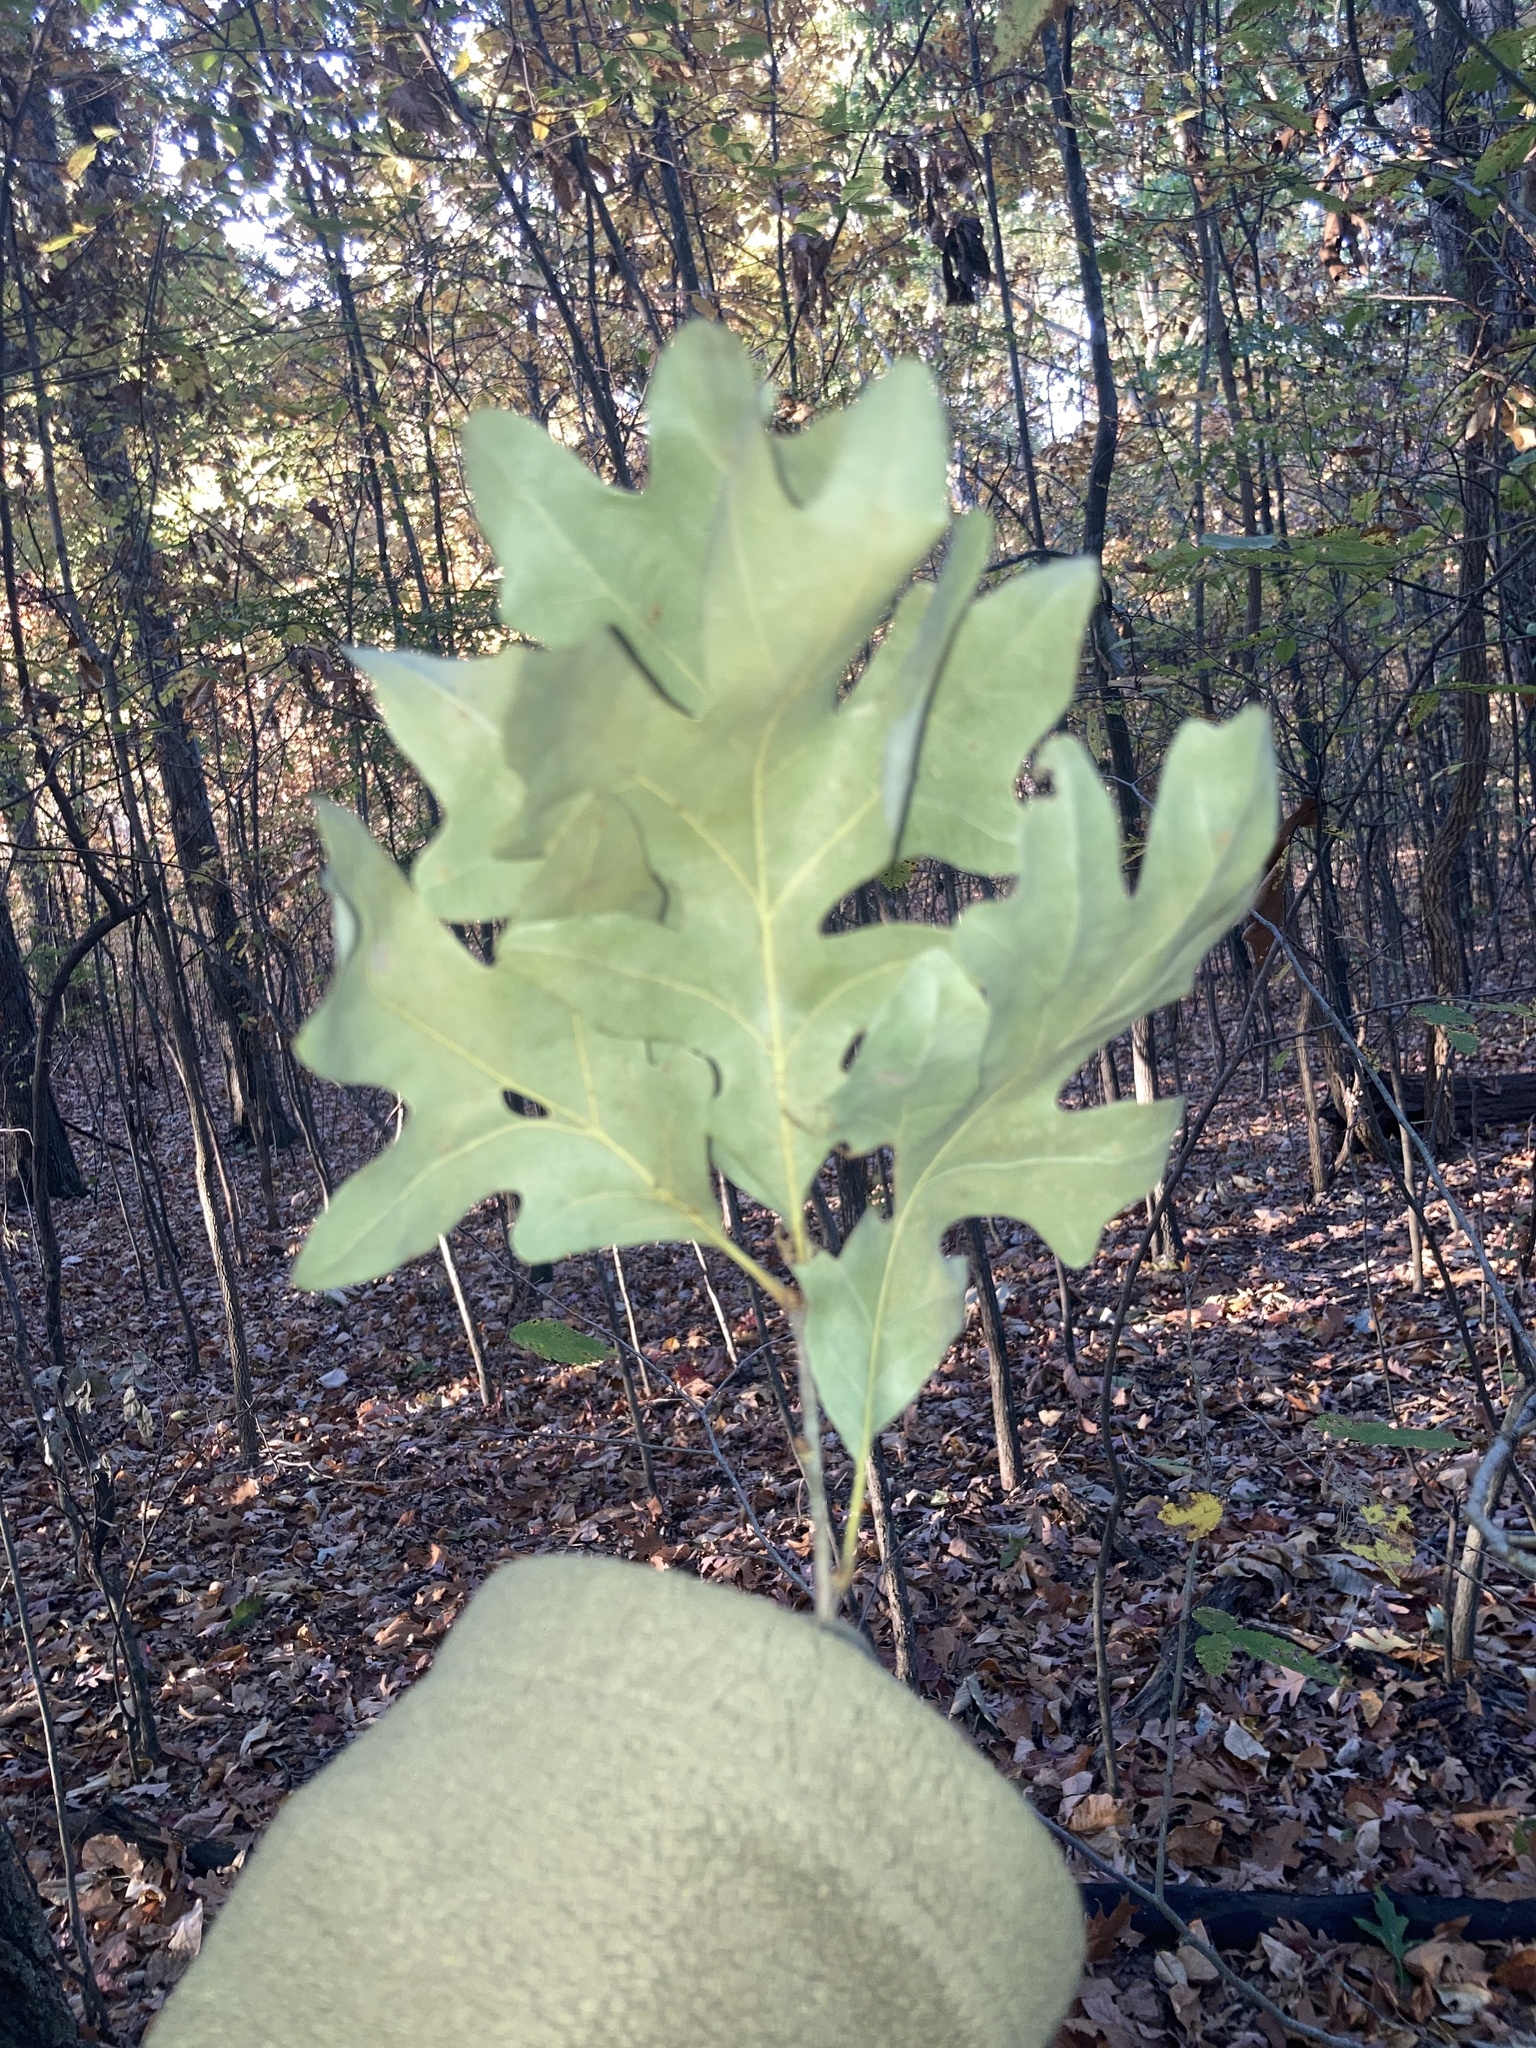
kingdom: Plantae
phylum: Tracheophyta
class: Magnoliopsida
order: Fagales
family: Fagaceae
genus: Quercus
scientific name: Quercus alba
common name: White oak
